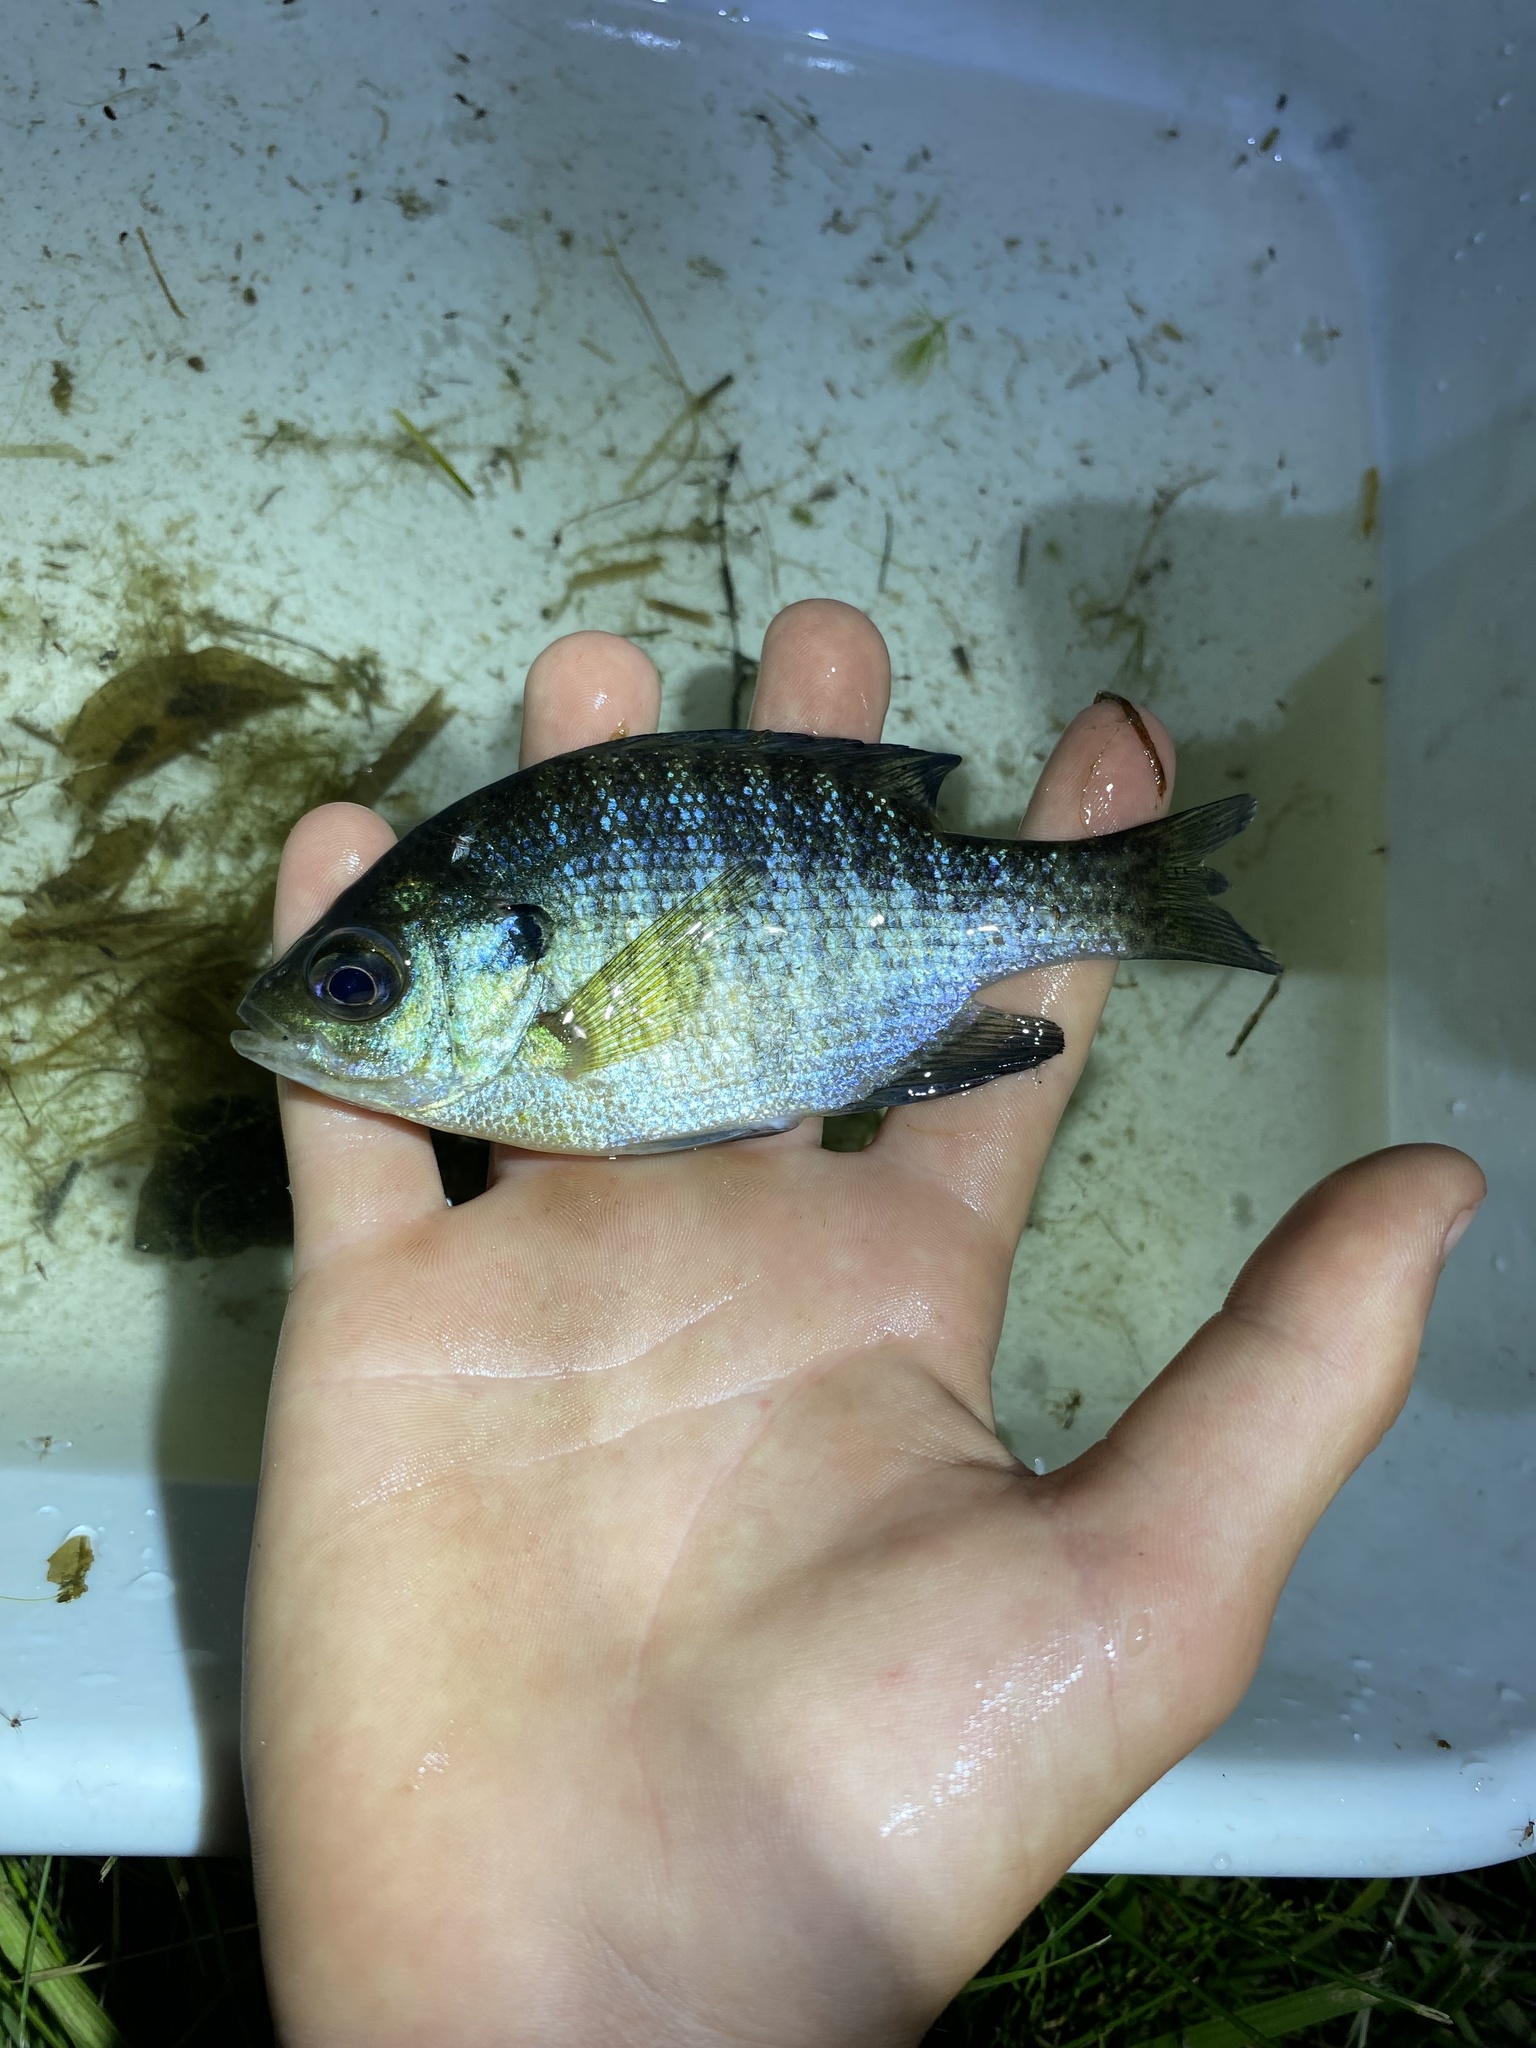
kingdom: Animalia
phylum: Chordata
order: Perciformes
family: Centrarchidae
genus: Lepomis
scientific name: Lepomis macrochirus
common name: Bluegill
